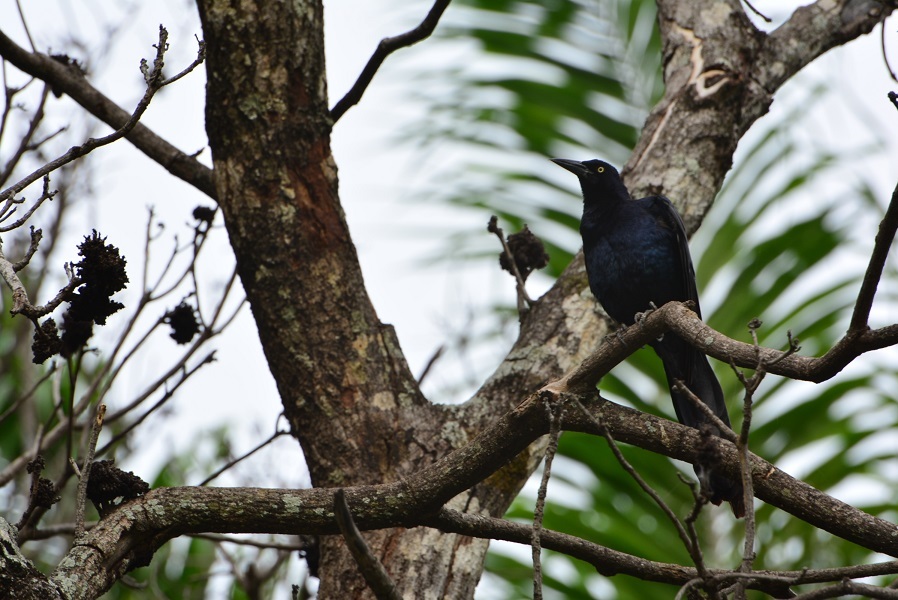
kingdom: Animalia
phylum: Chordata
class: Aves
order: Passeriformes
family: Icteridae
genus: Quiscalus
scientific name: Quiscalus mexicanus
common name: Great-tailed grackle
